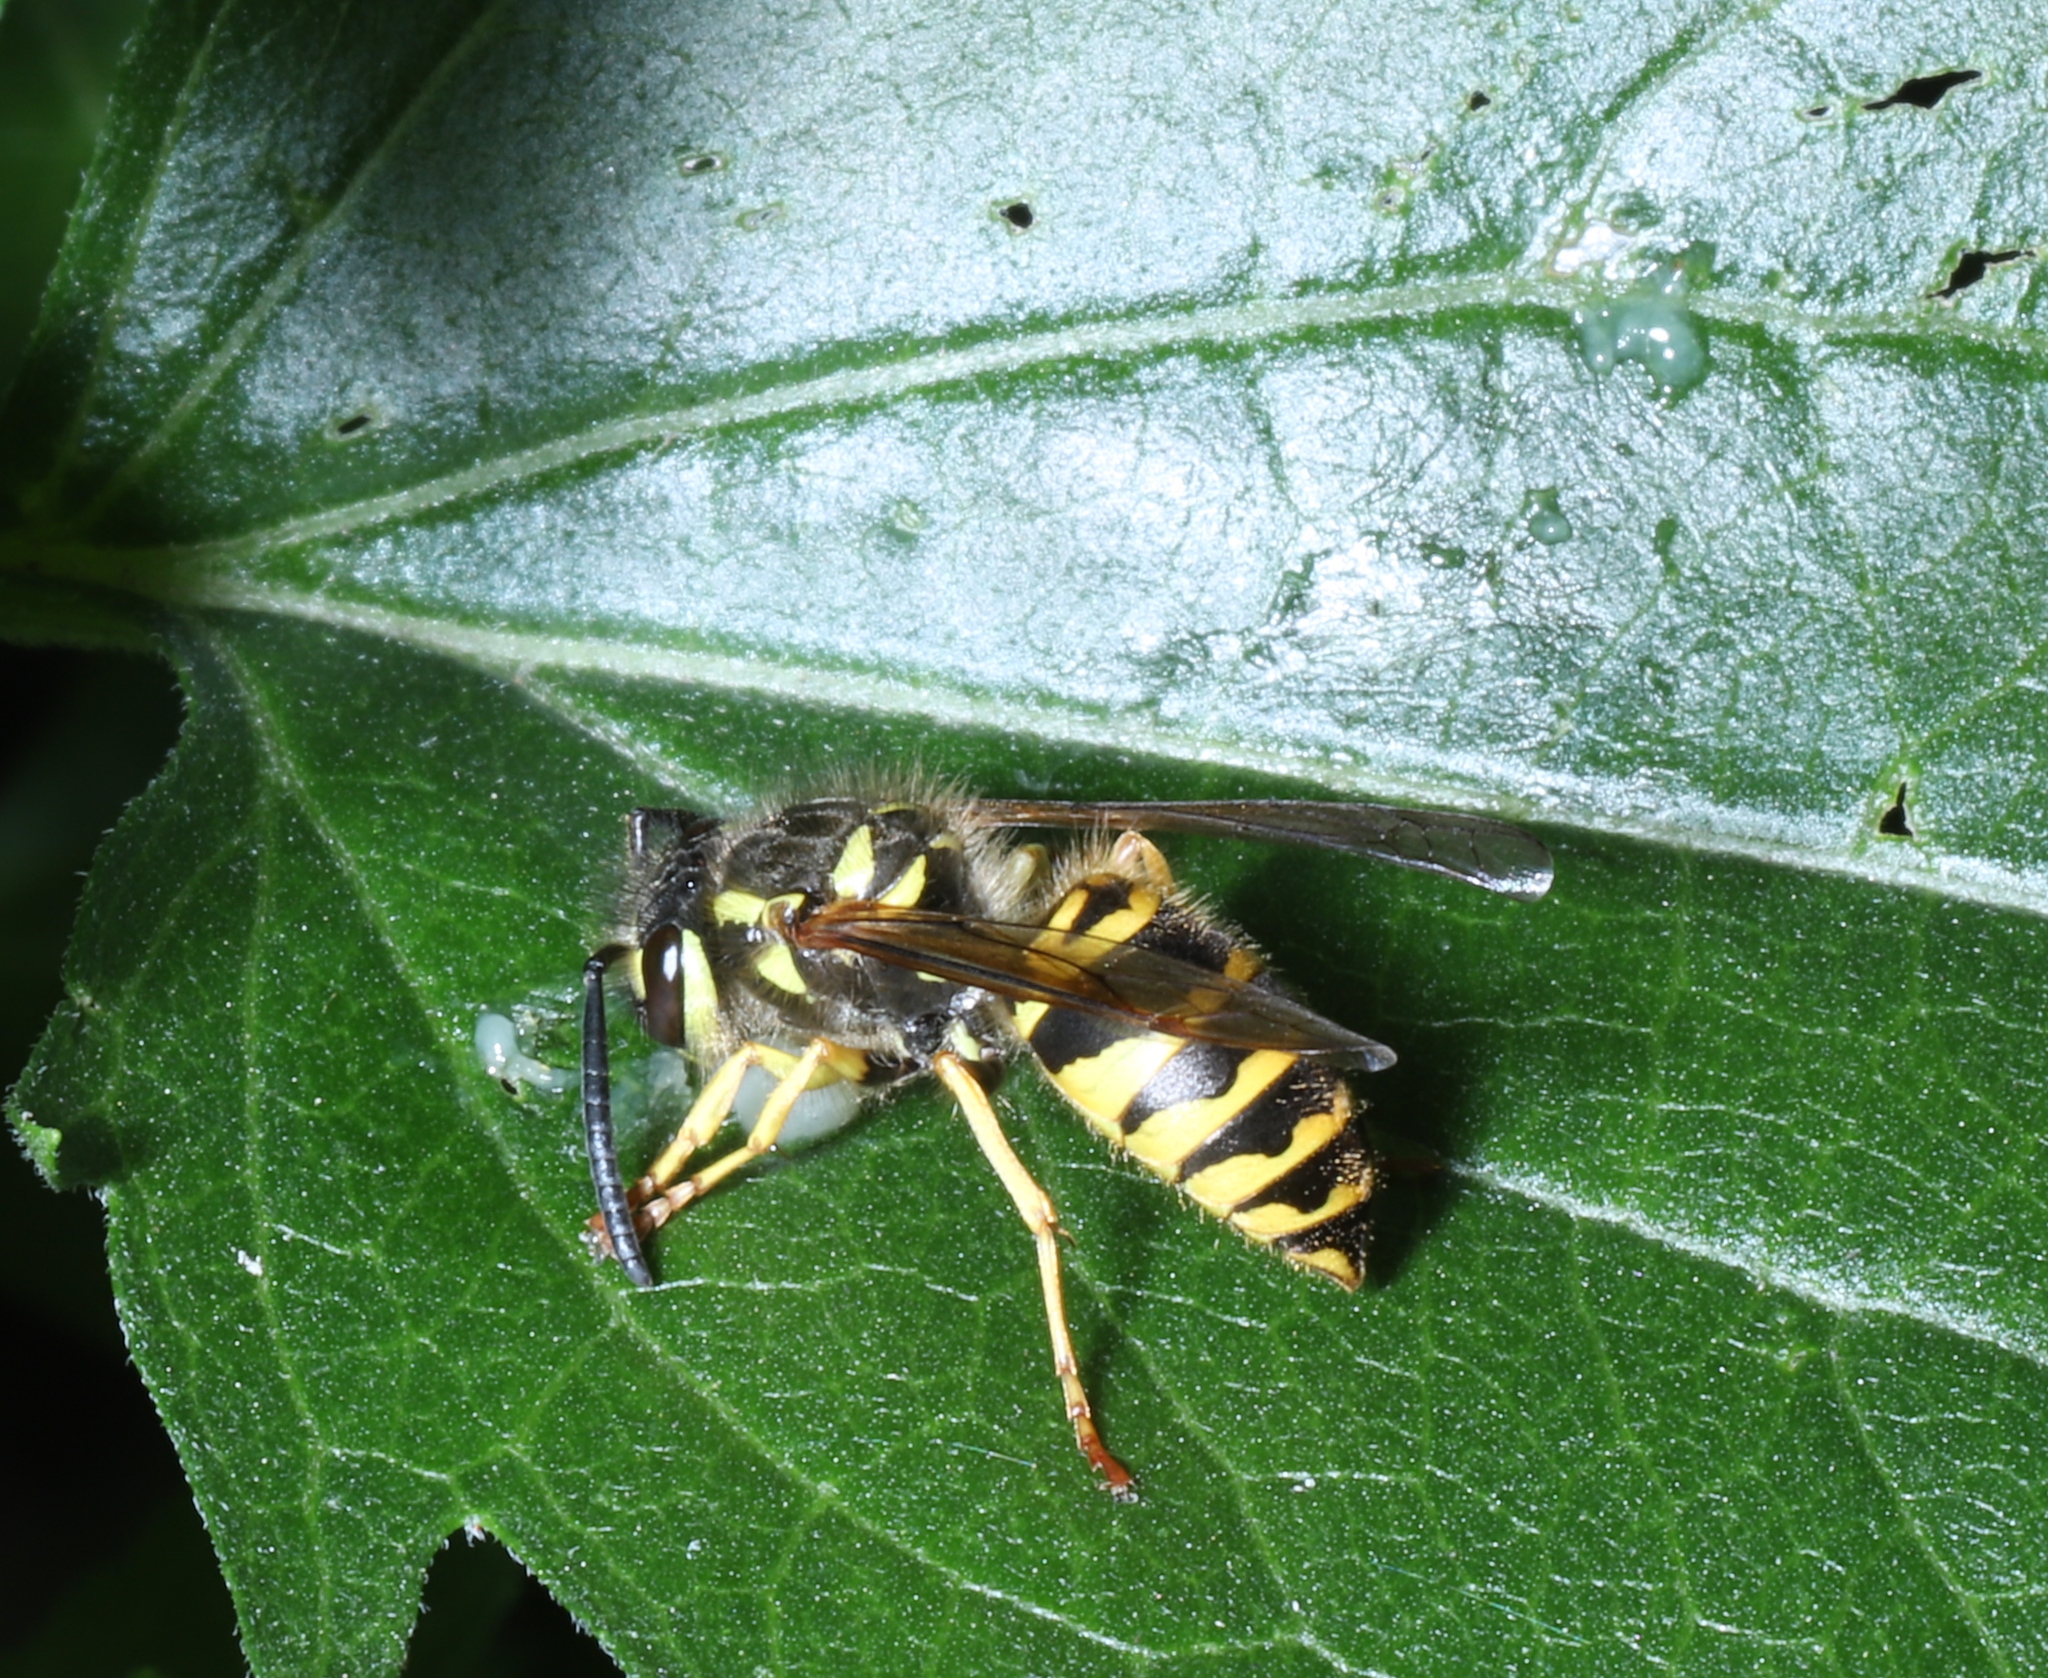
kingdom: Animalia
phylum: Arthropoda
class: Insecta
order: Hymenoptera
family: Vespidae
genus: Vespula
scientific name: Vespula maculifrons
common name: Eastern yellowjacket
